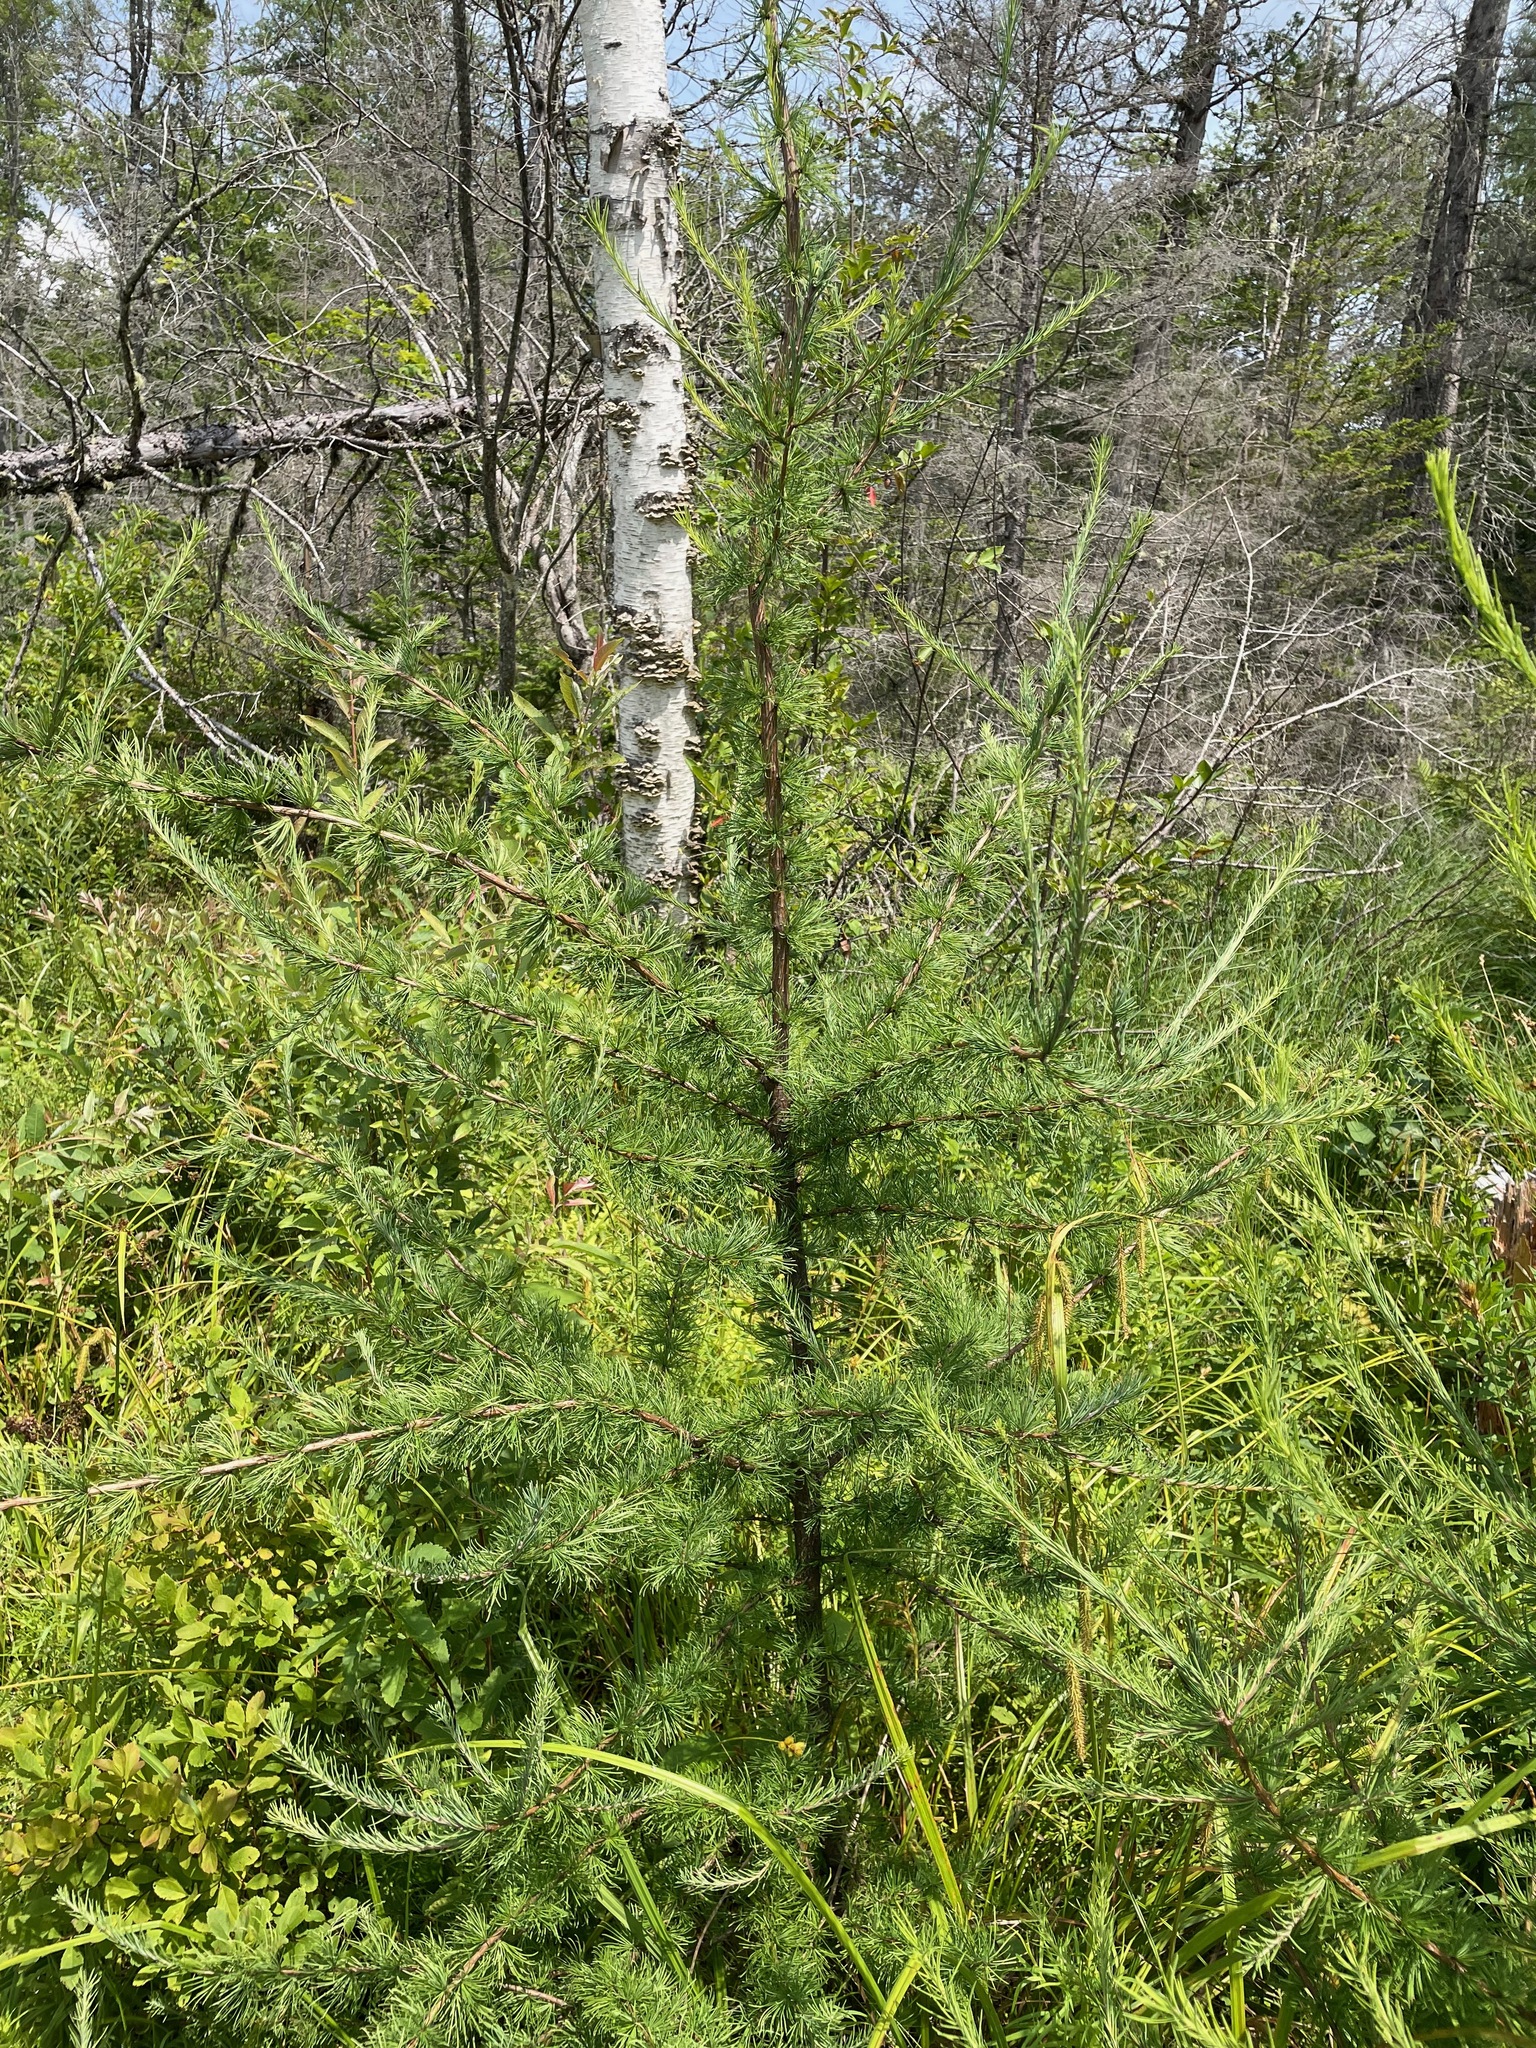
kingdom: Plantae
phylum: Tracheophyta
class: Pinopsida
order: Pinales
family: Pinaceae
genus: Larix
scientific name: Larix laricina
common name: American larch
